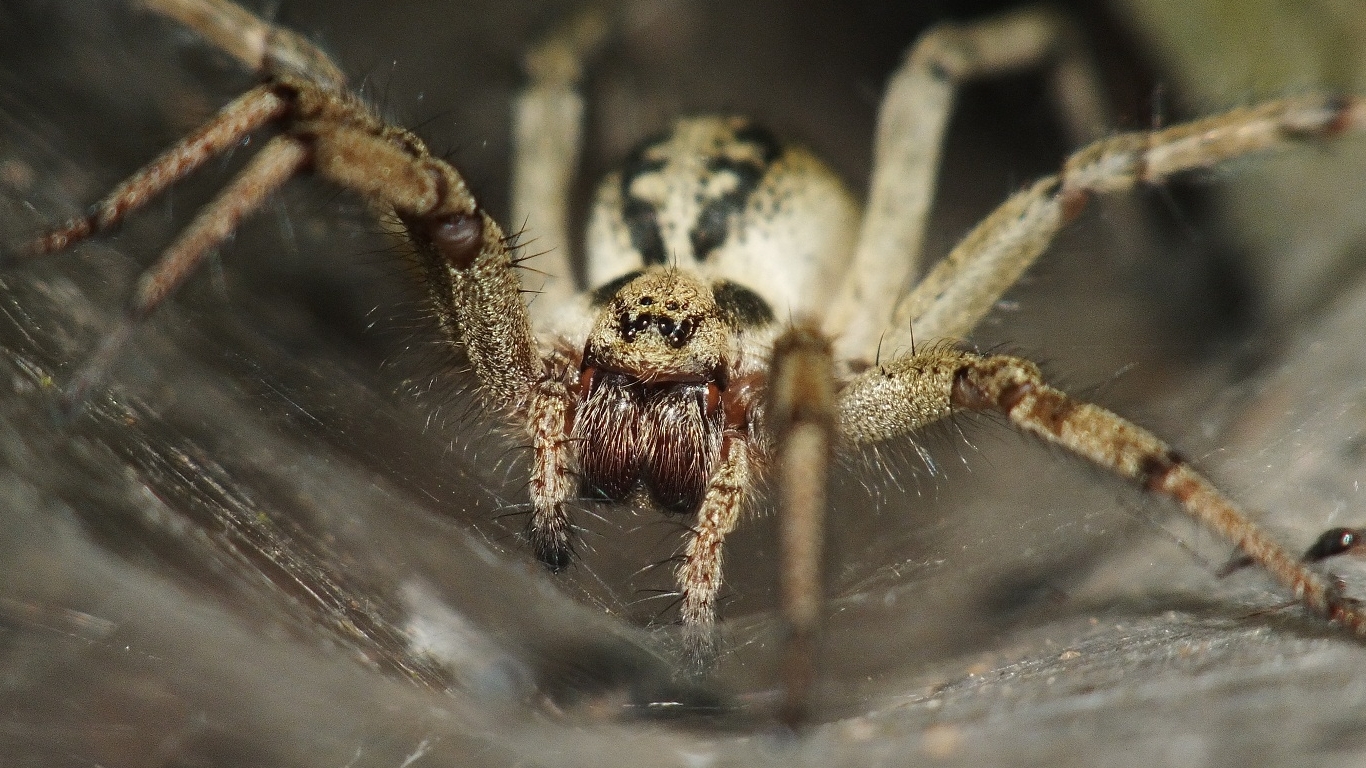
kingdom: Animalia
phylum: Arthropoda
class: Arachnida
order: Araneae
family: Agelenidae
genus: Agelena
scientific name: Agelena labyrinthica
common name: Labyrinth spider
